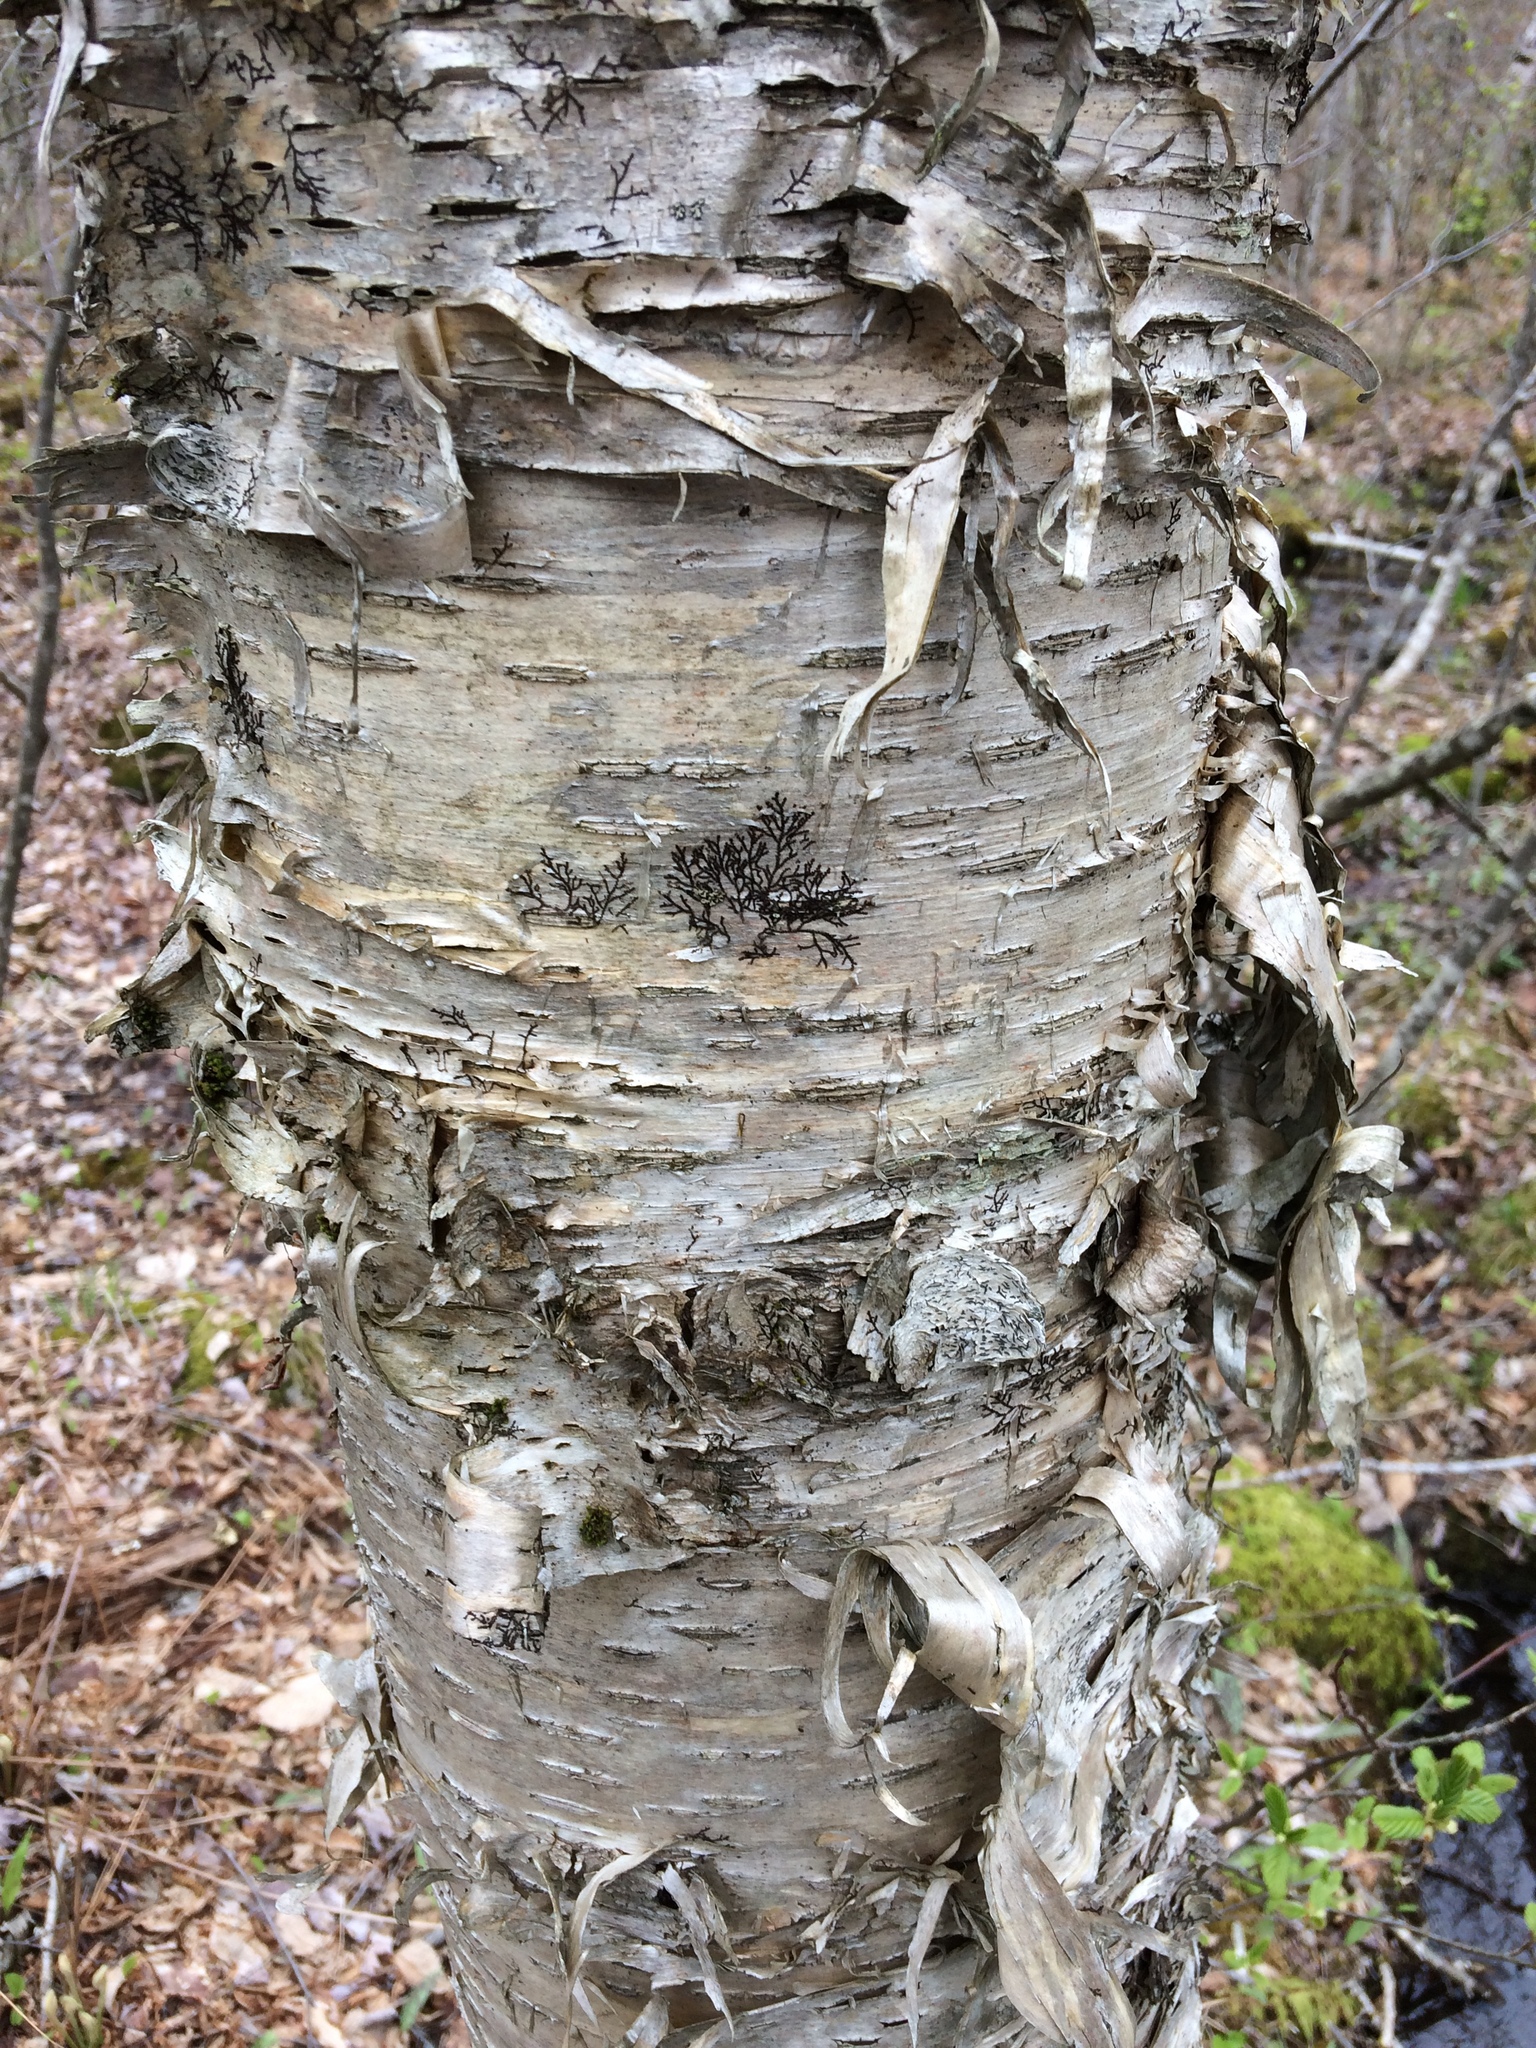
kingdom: Plantae
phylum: Tracheophyta
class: Magnoliopsida
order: Fagales
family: Betulaceae
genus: Betula
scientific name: Betula alleghaniensis
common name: Yellow birch
